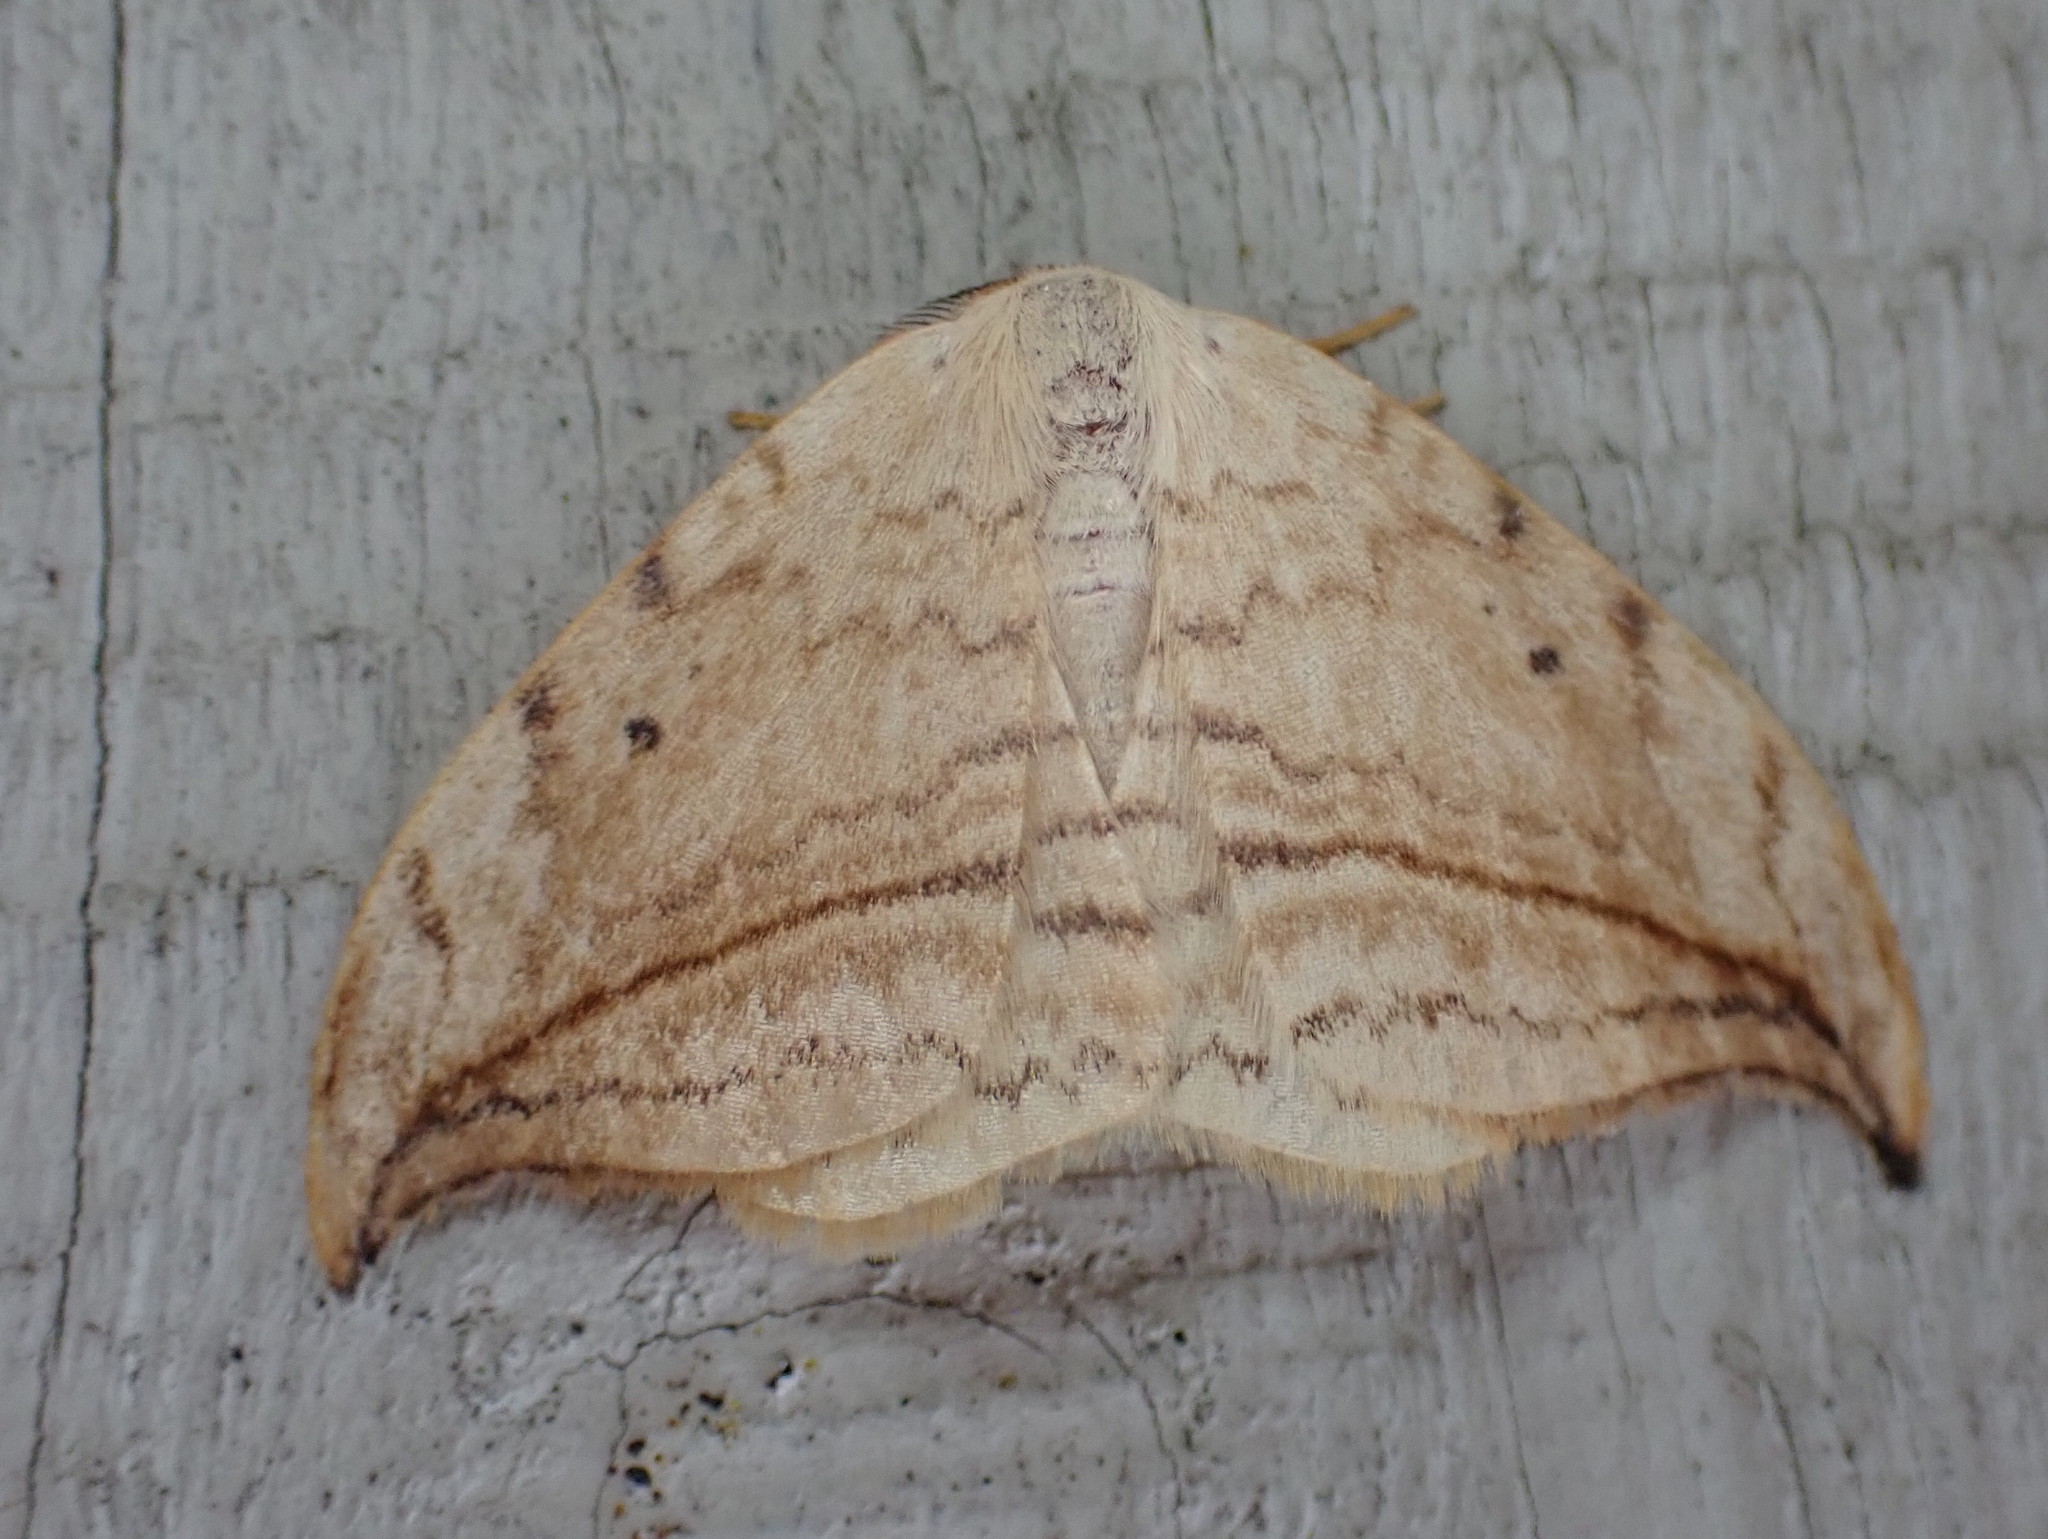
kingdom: Animalia
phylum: Arthropoda
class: Insecta
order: Lepidoptera
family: Drepanidae
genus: Drepana
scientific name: Drepana arcuata
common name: Arched hooktip moth
